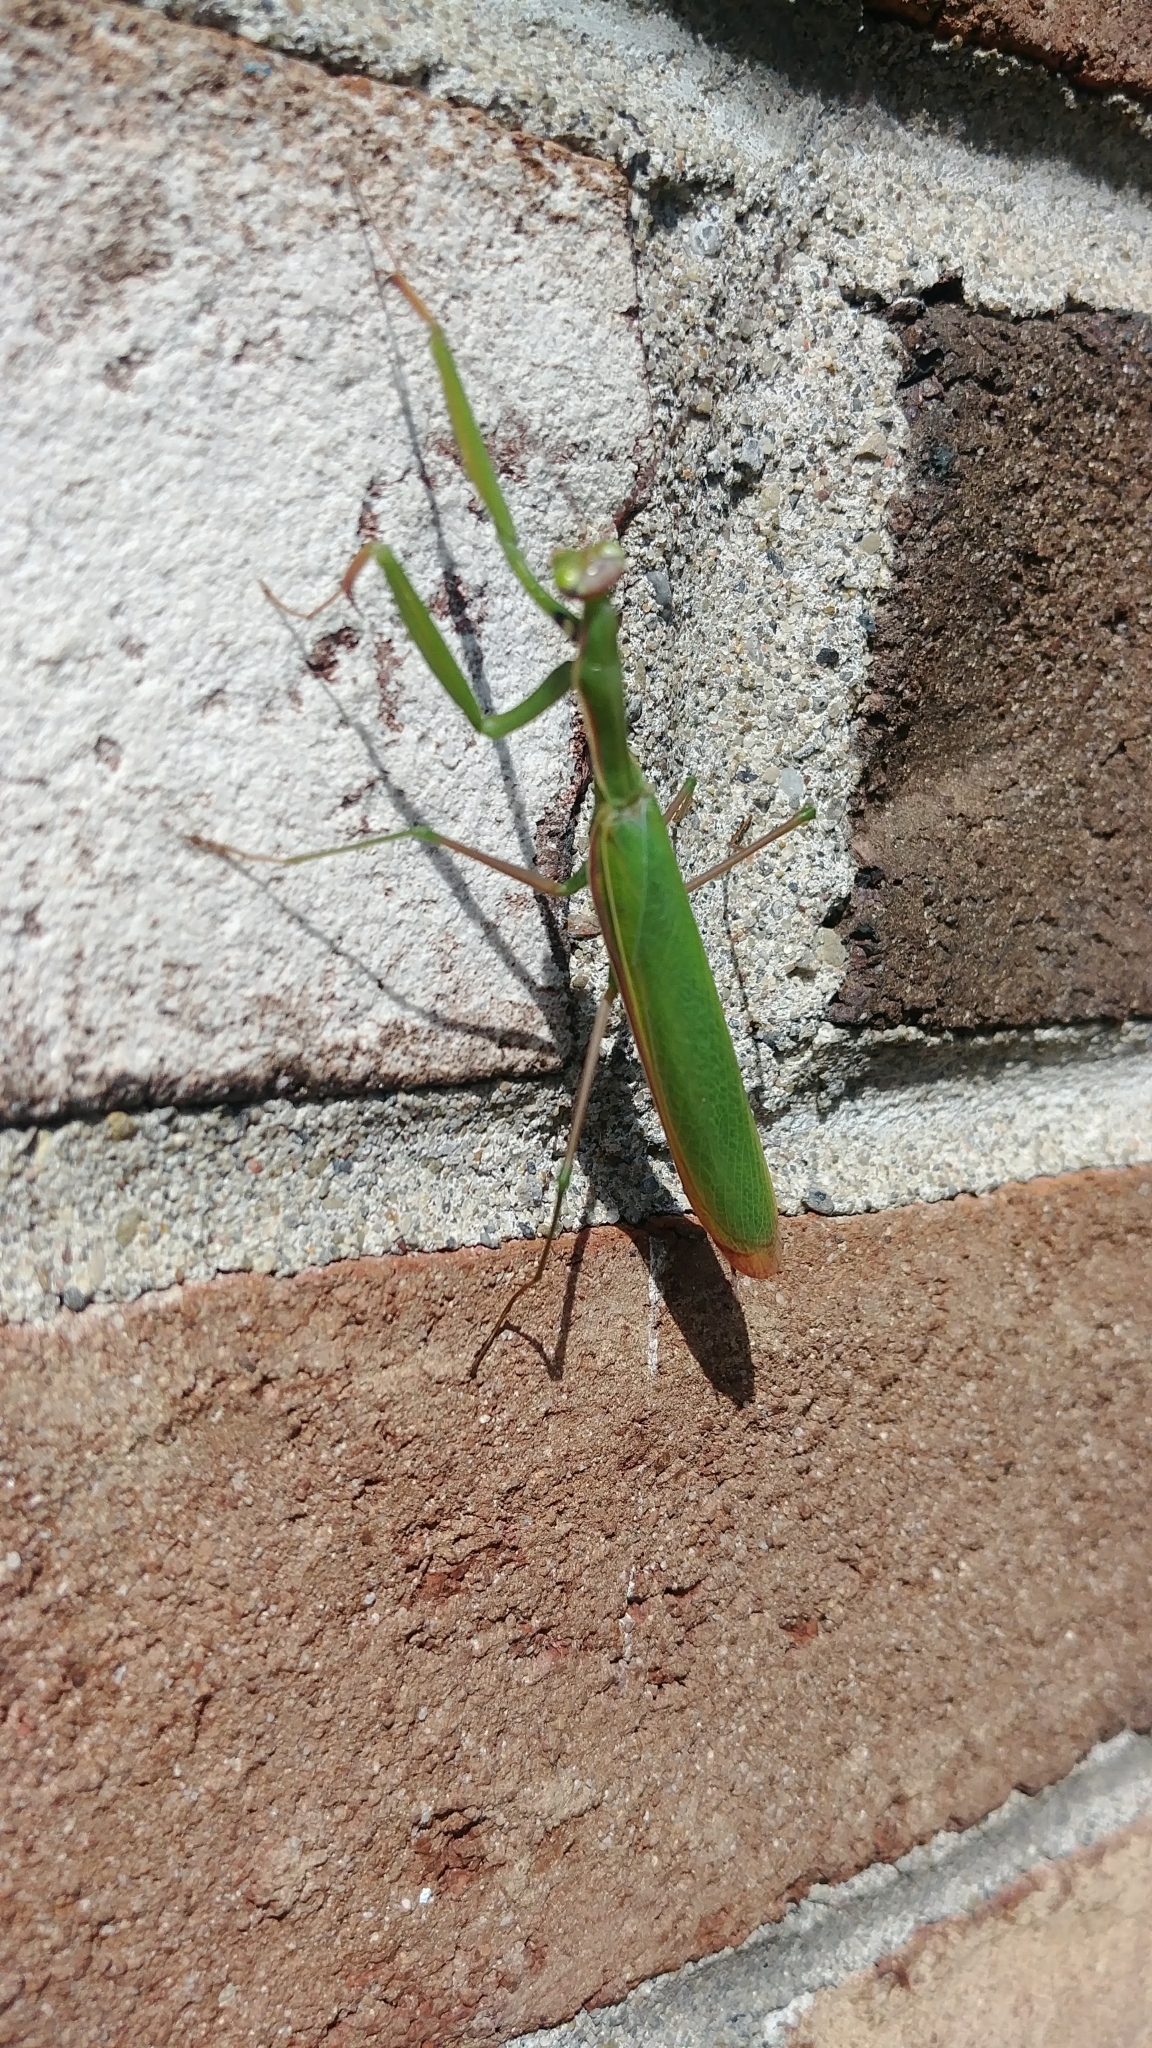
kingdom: Animalia
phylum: Arthropoda
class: Insecta
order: Mantodea
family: Mantidae
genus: Mantis
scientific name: Mantis religiosa
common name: Praying mantis
